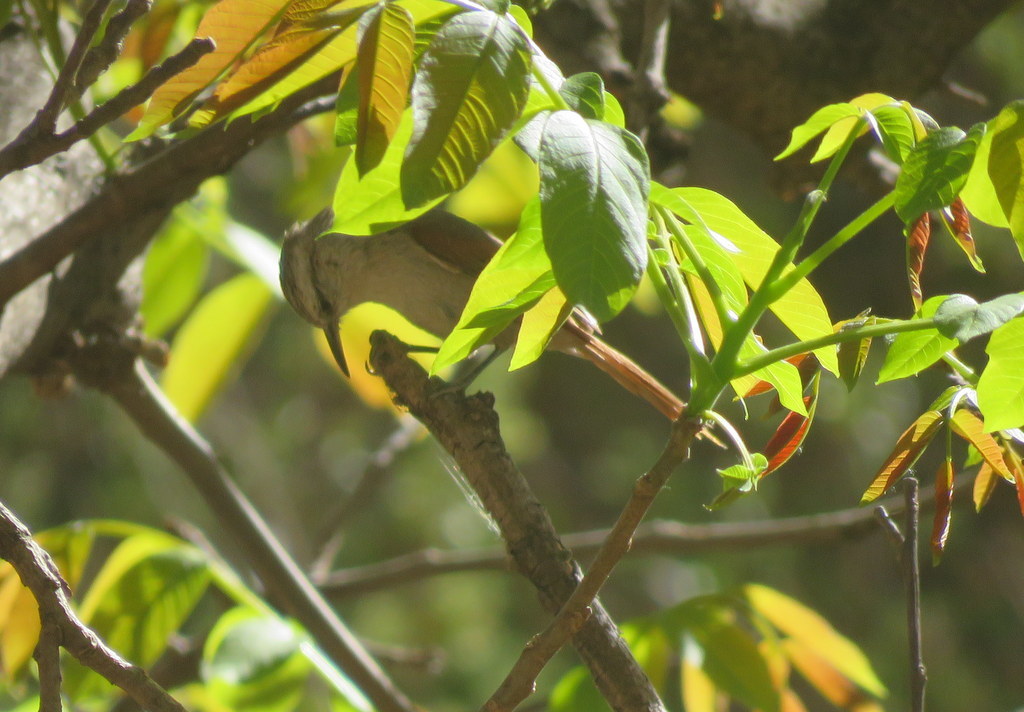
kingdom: Animalia
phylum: Chordata
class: Aves
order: Passeriformes
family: Furnariidae
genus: Cranioleuca
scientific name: Cranioleuca pyrrhophia
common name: Stripe-crowned spinetail
